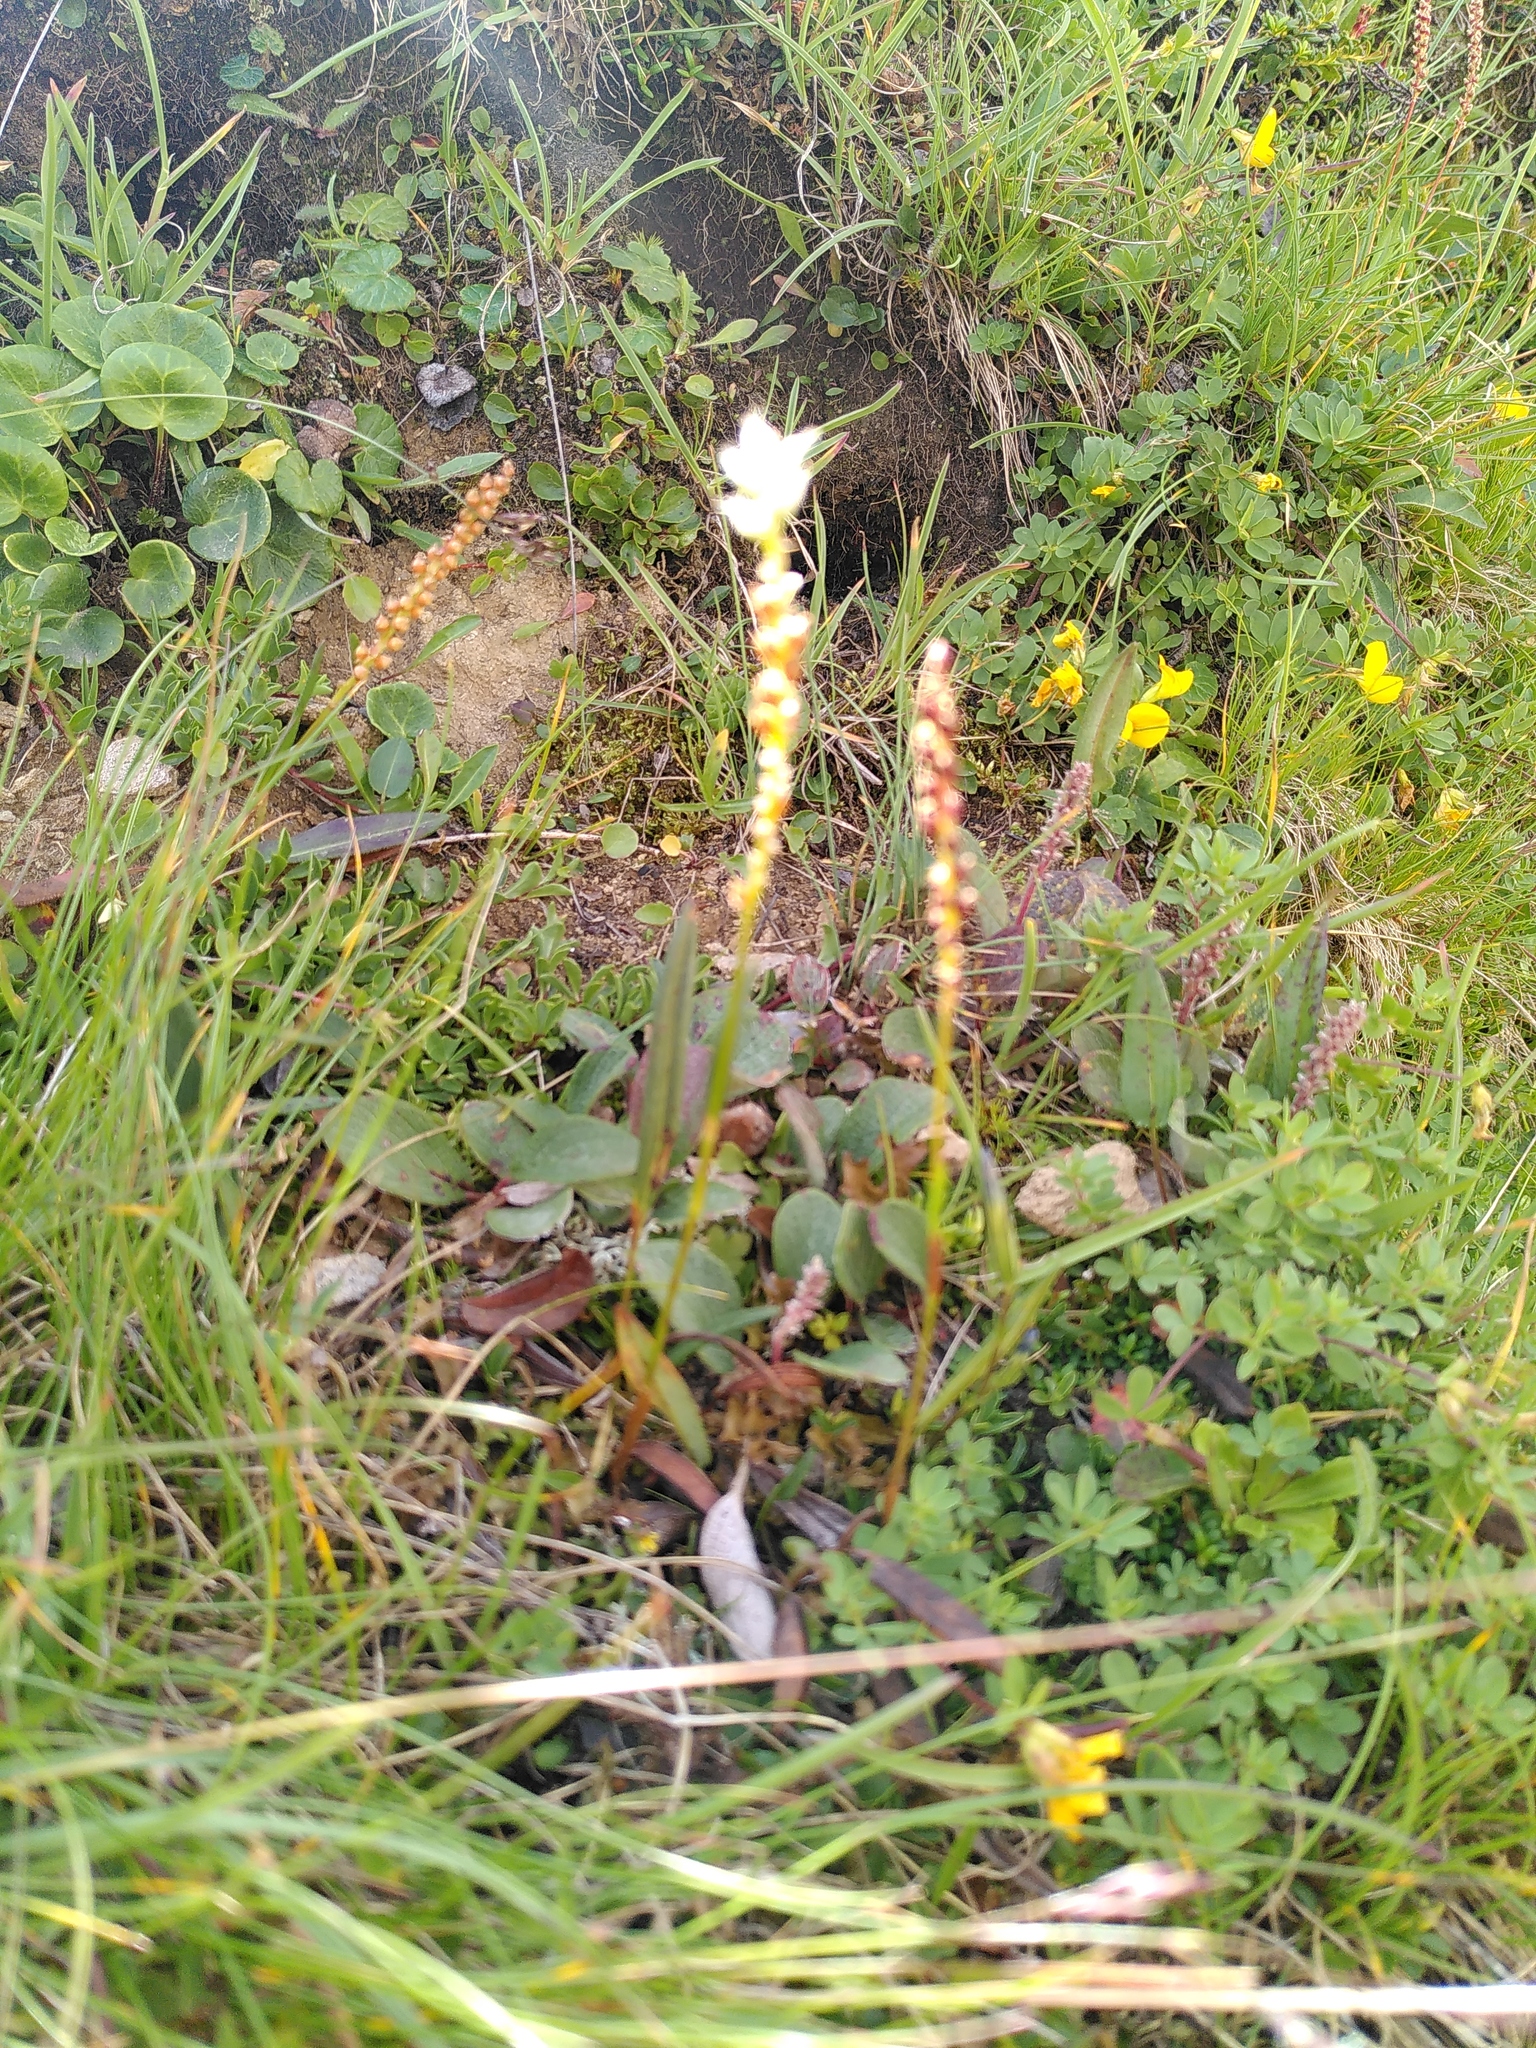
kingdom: Plantae
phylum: Tracheophyta
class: Magnoliopsida
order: Caryophyllales
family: Polygonaceae
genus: Bistorta
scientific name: Bistorta vivipara
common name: Alpine bistort
